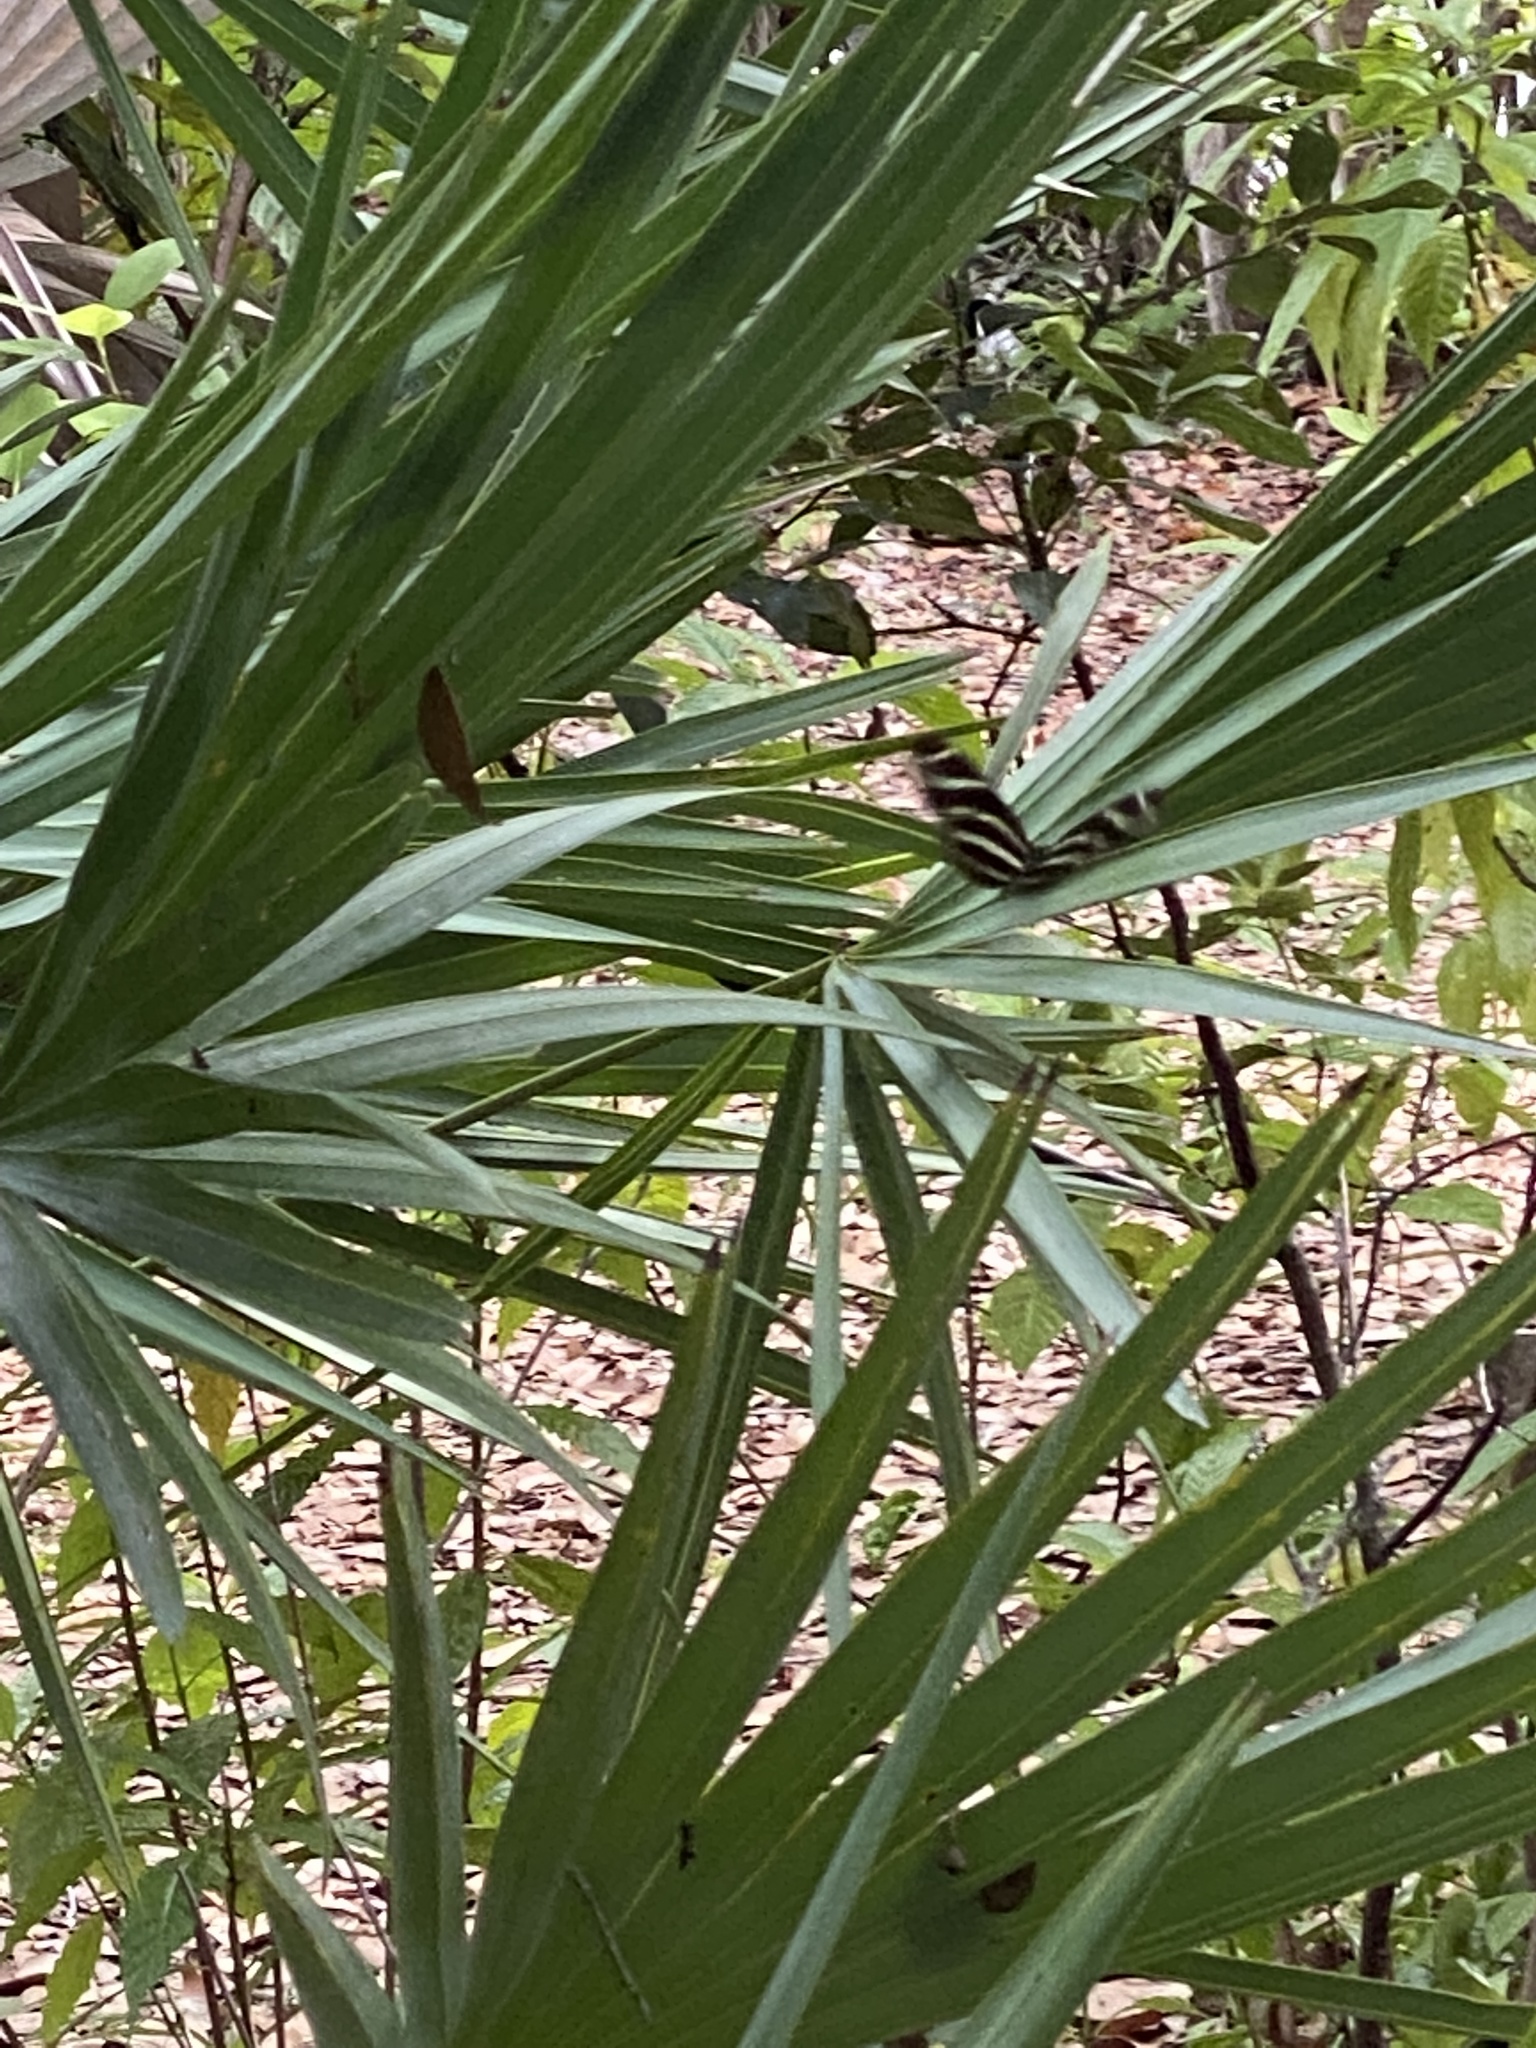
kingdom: Animalia
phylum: Arthropoda
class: Insecta
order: Lepidoptera
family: Nymphalidae
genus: Heliconius
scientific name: Heliconius charithonia
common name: Zebra long wing
